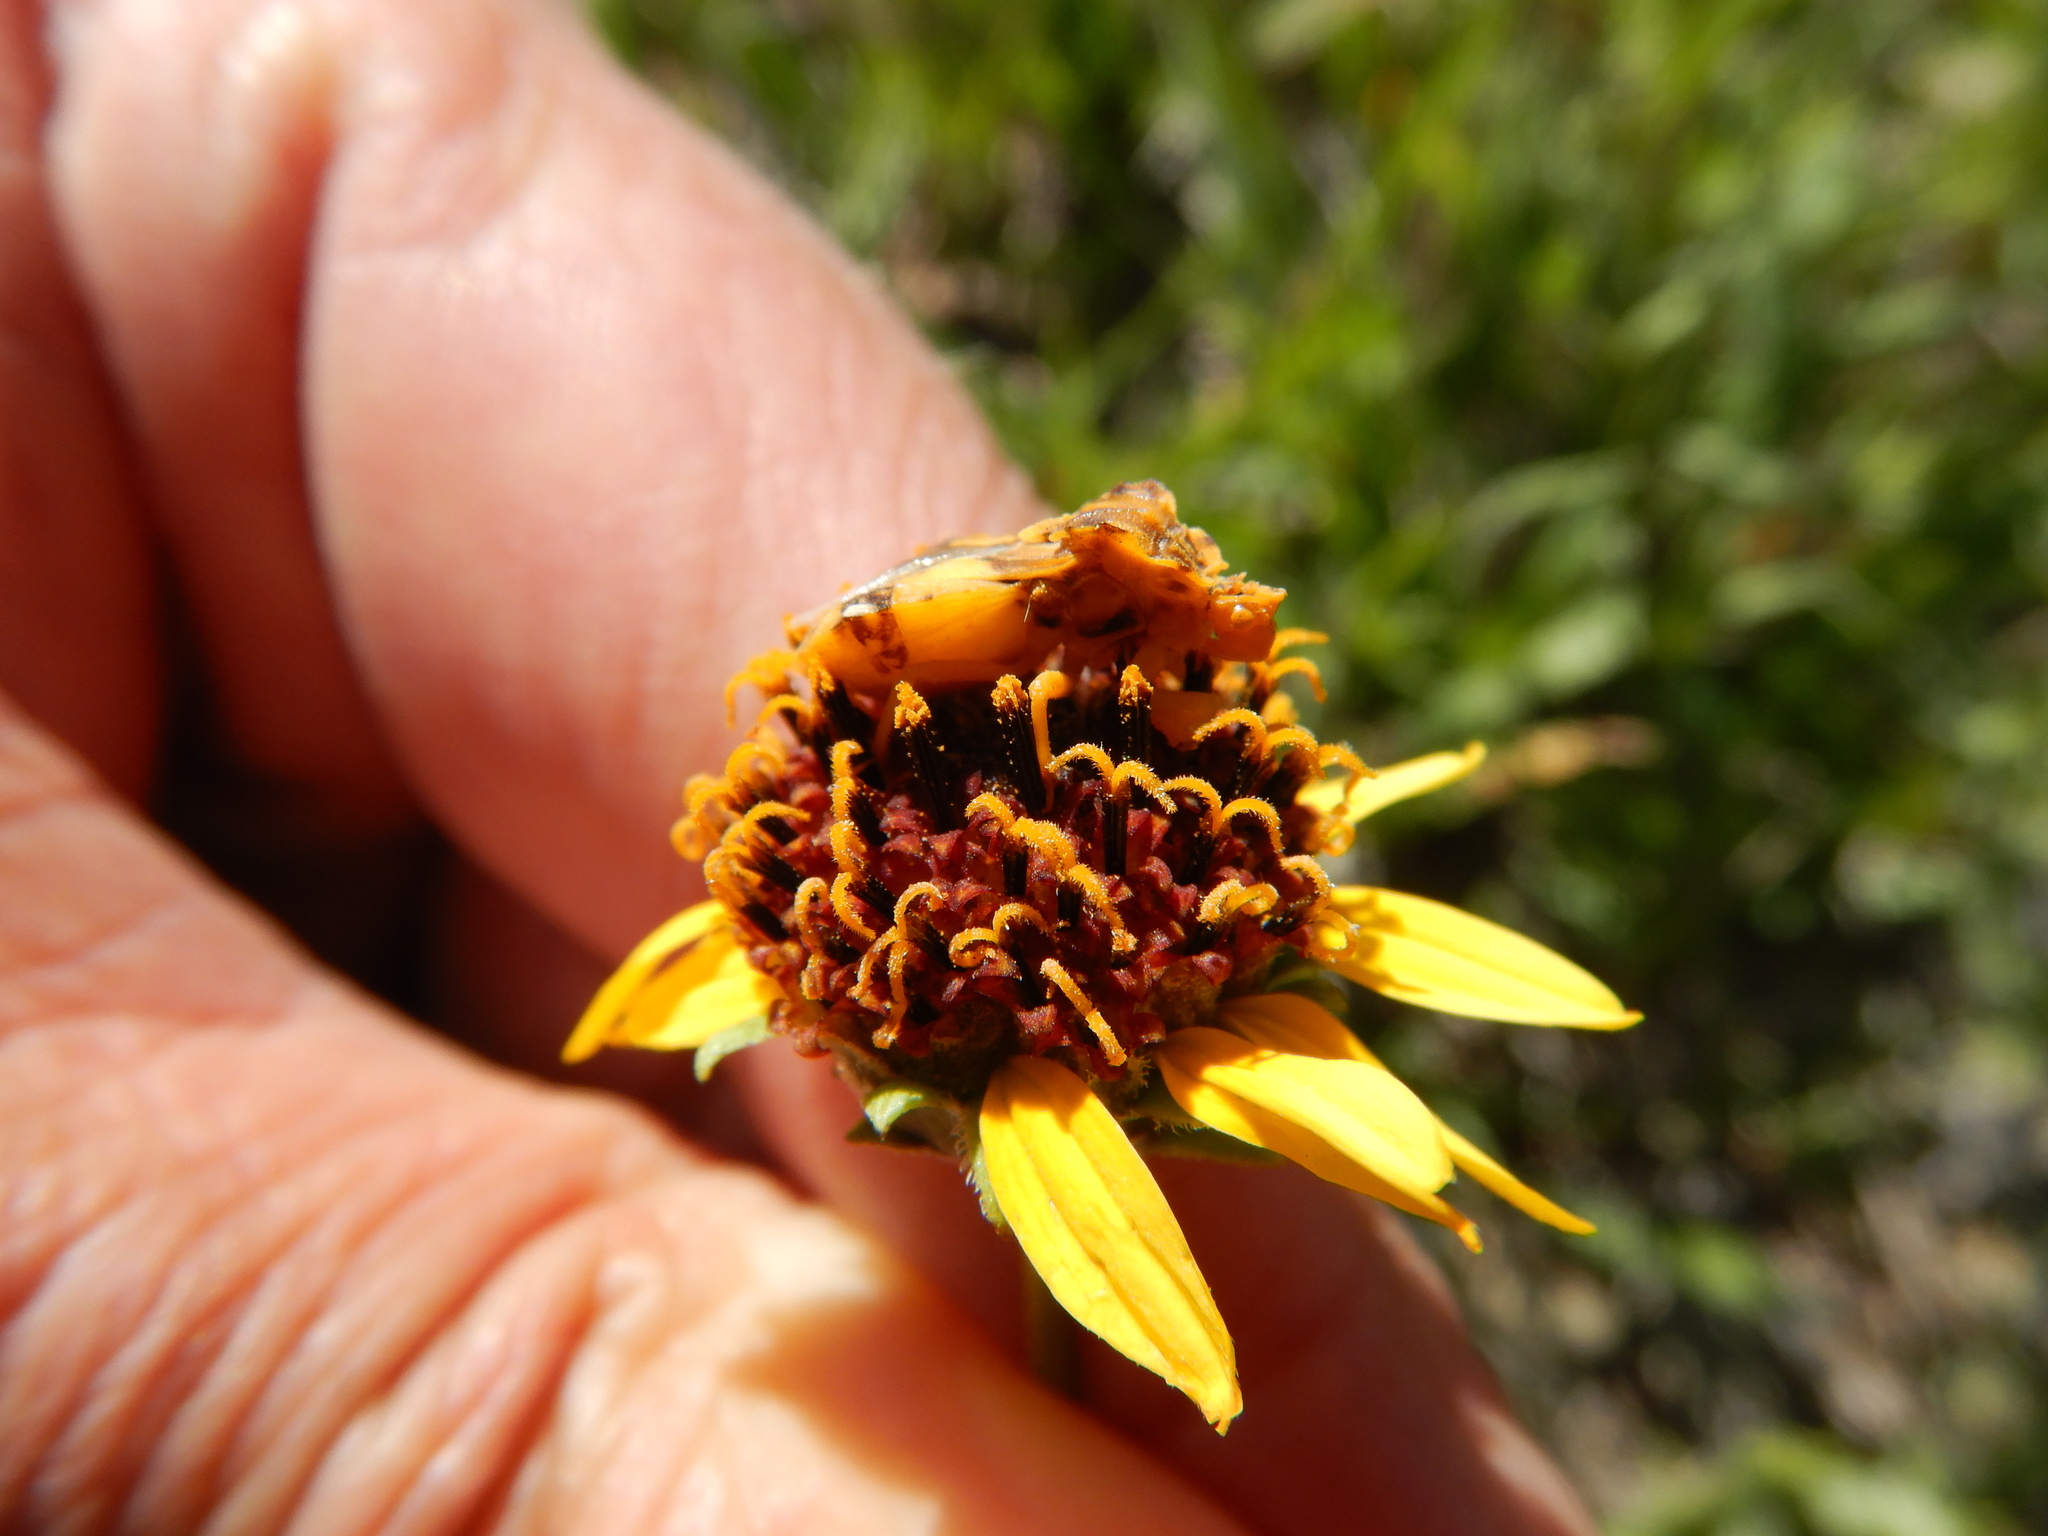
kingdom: Animalia
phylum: Arthropoda
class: Insecta
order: Hemiptera
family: Reduviidae
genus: Phymata
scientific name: Phymata americana
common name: Jagged ambush bug
